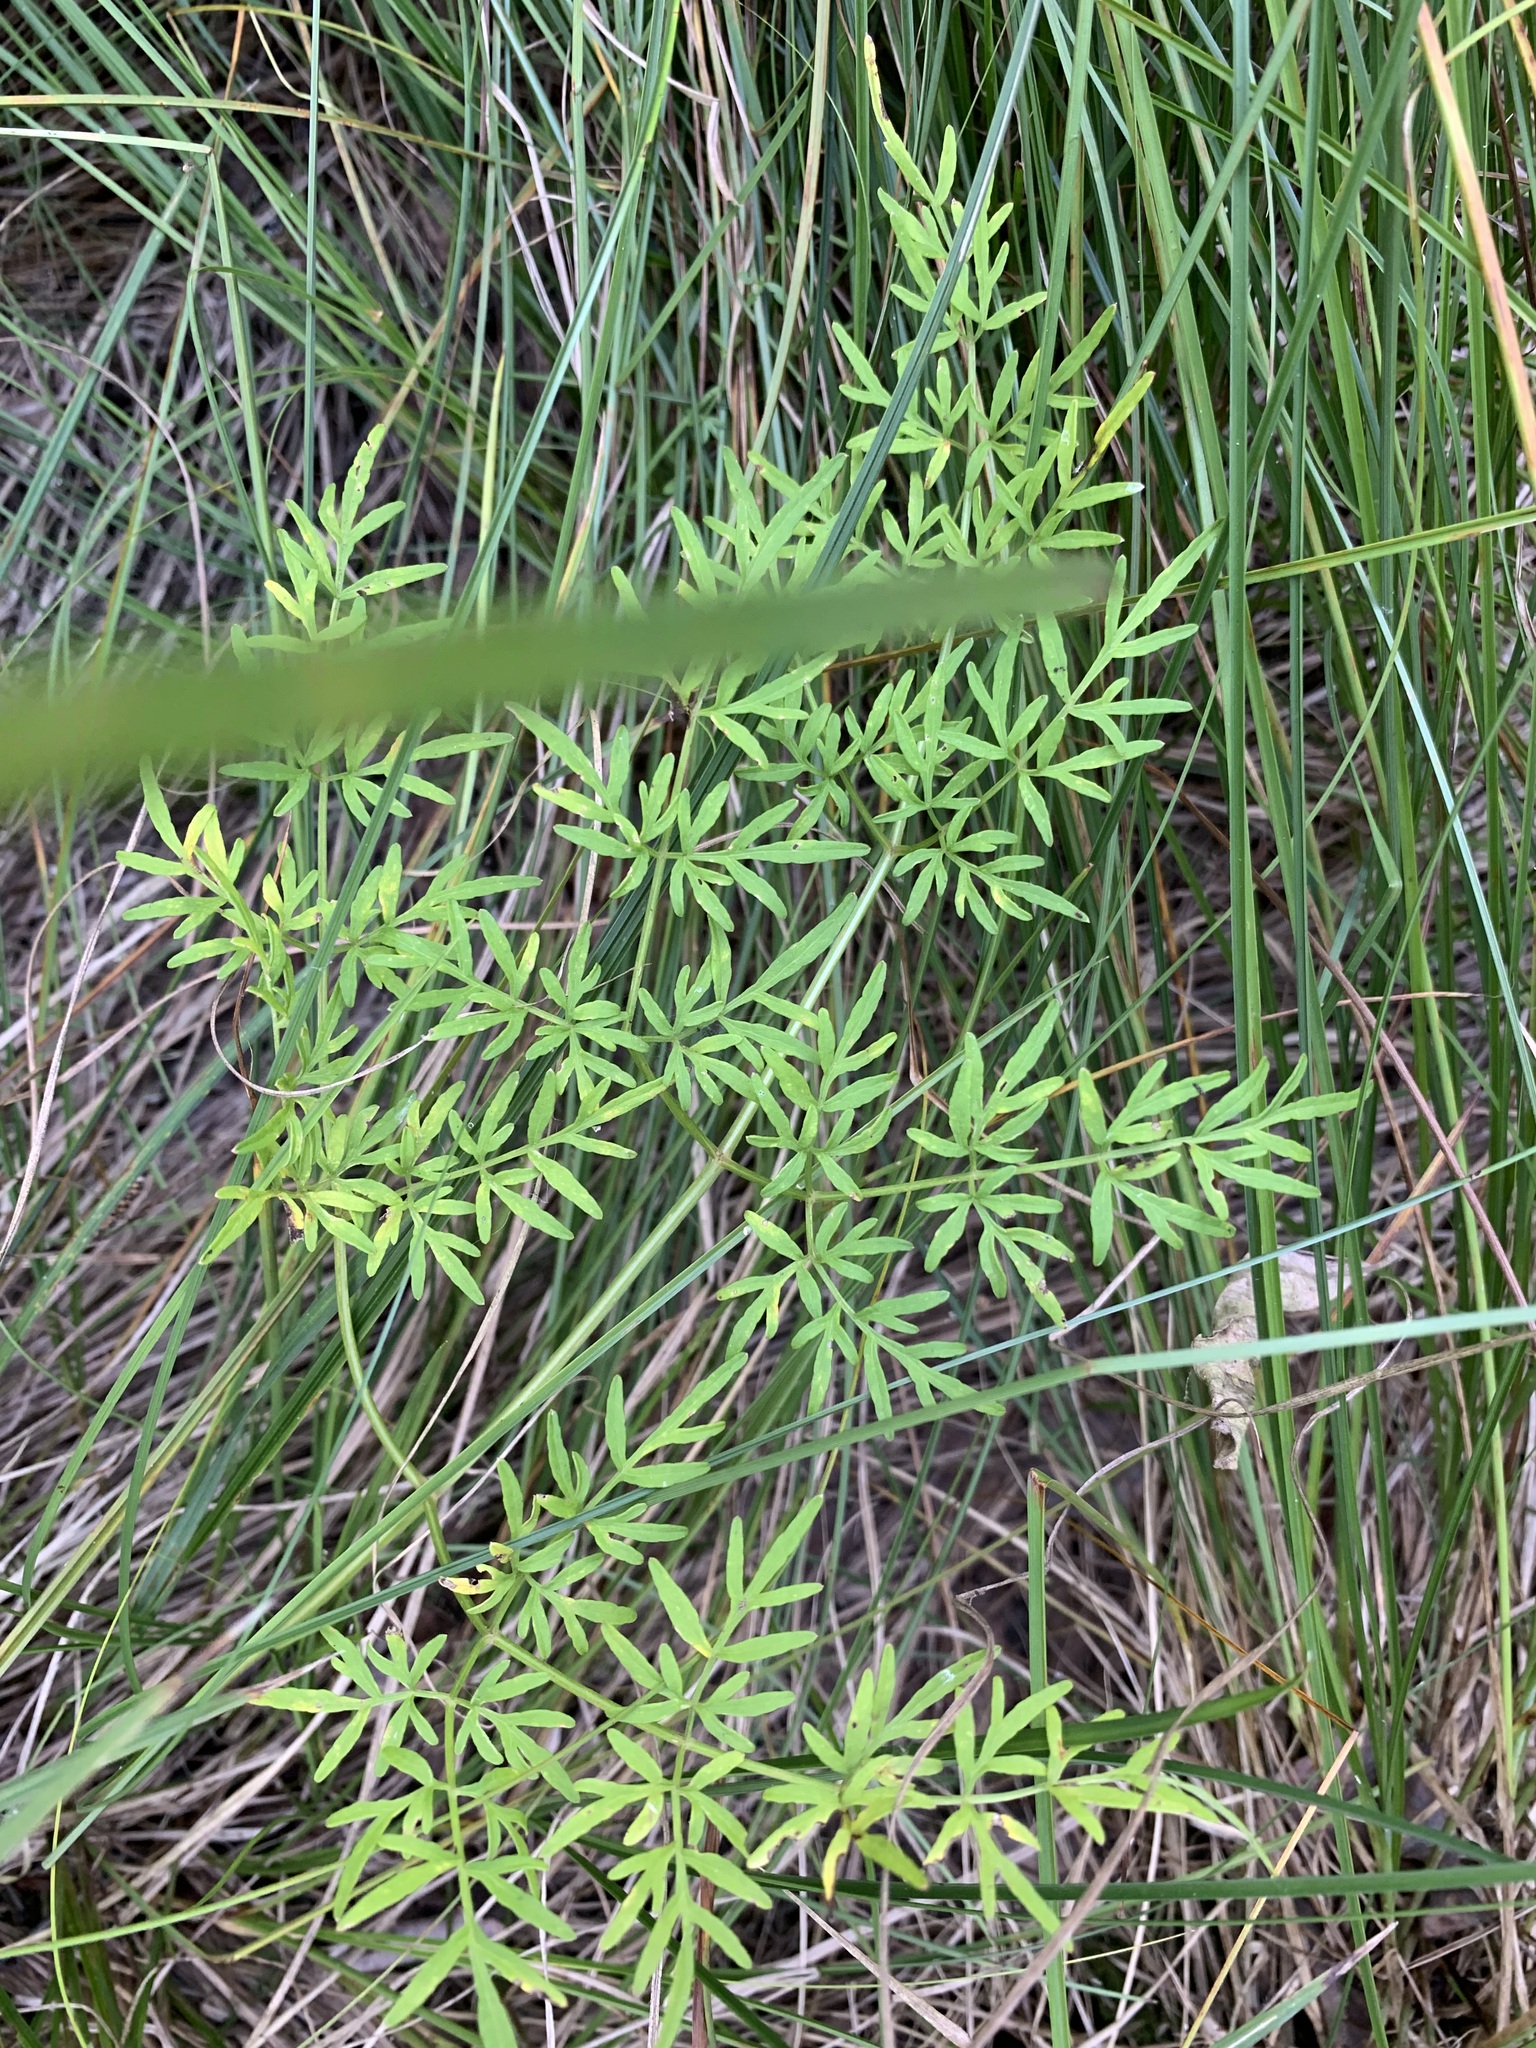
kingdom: Plantae
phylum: Tracheophyta
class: Magnoliopsida
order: Apiales
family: Apiaceae
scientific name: Apiaceae
